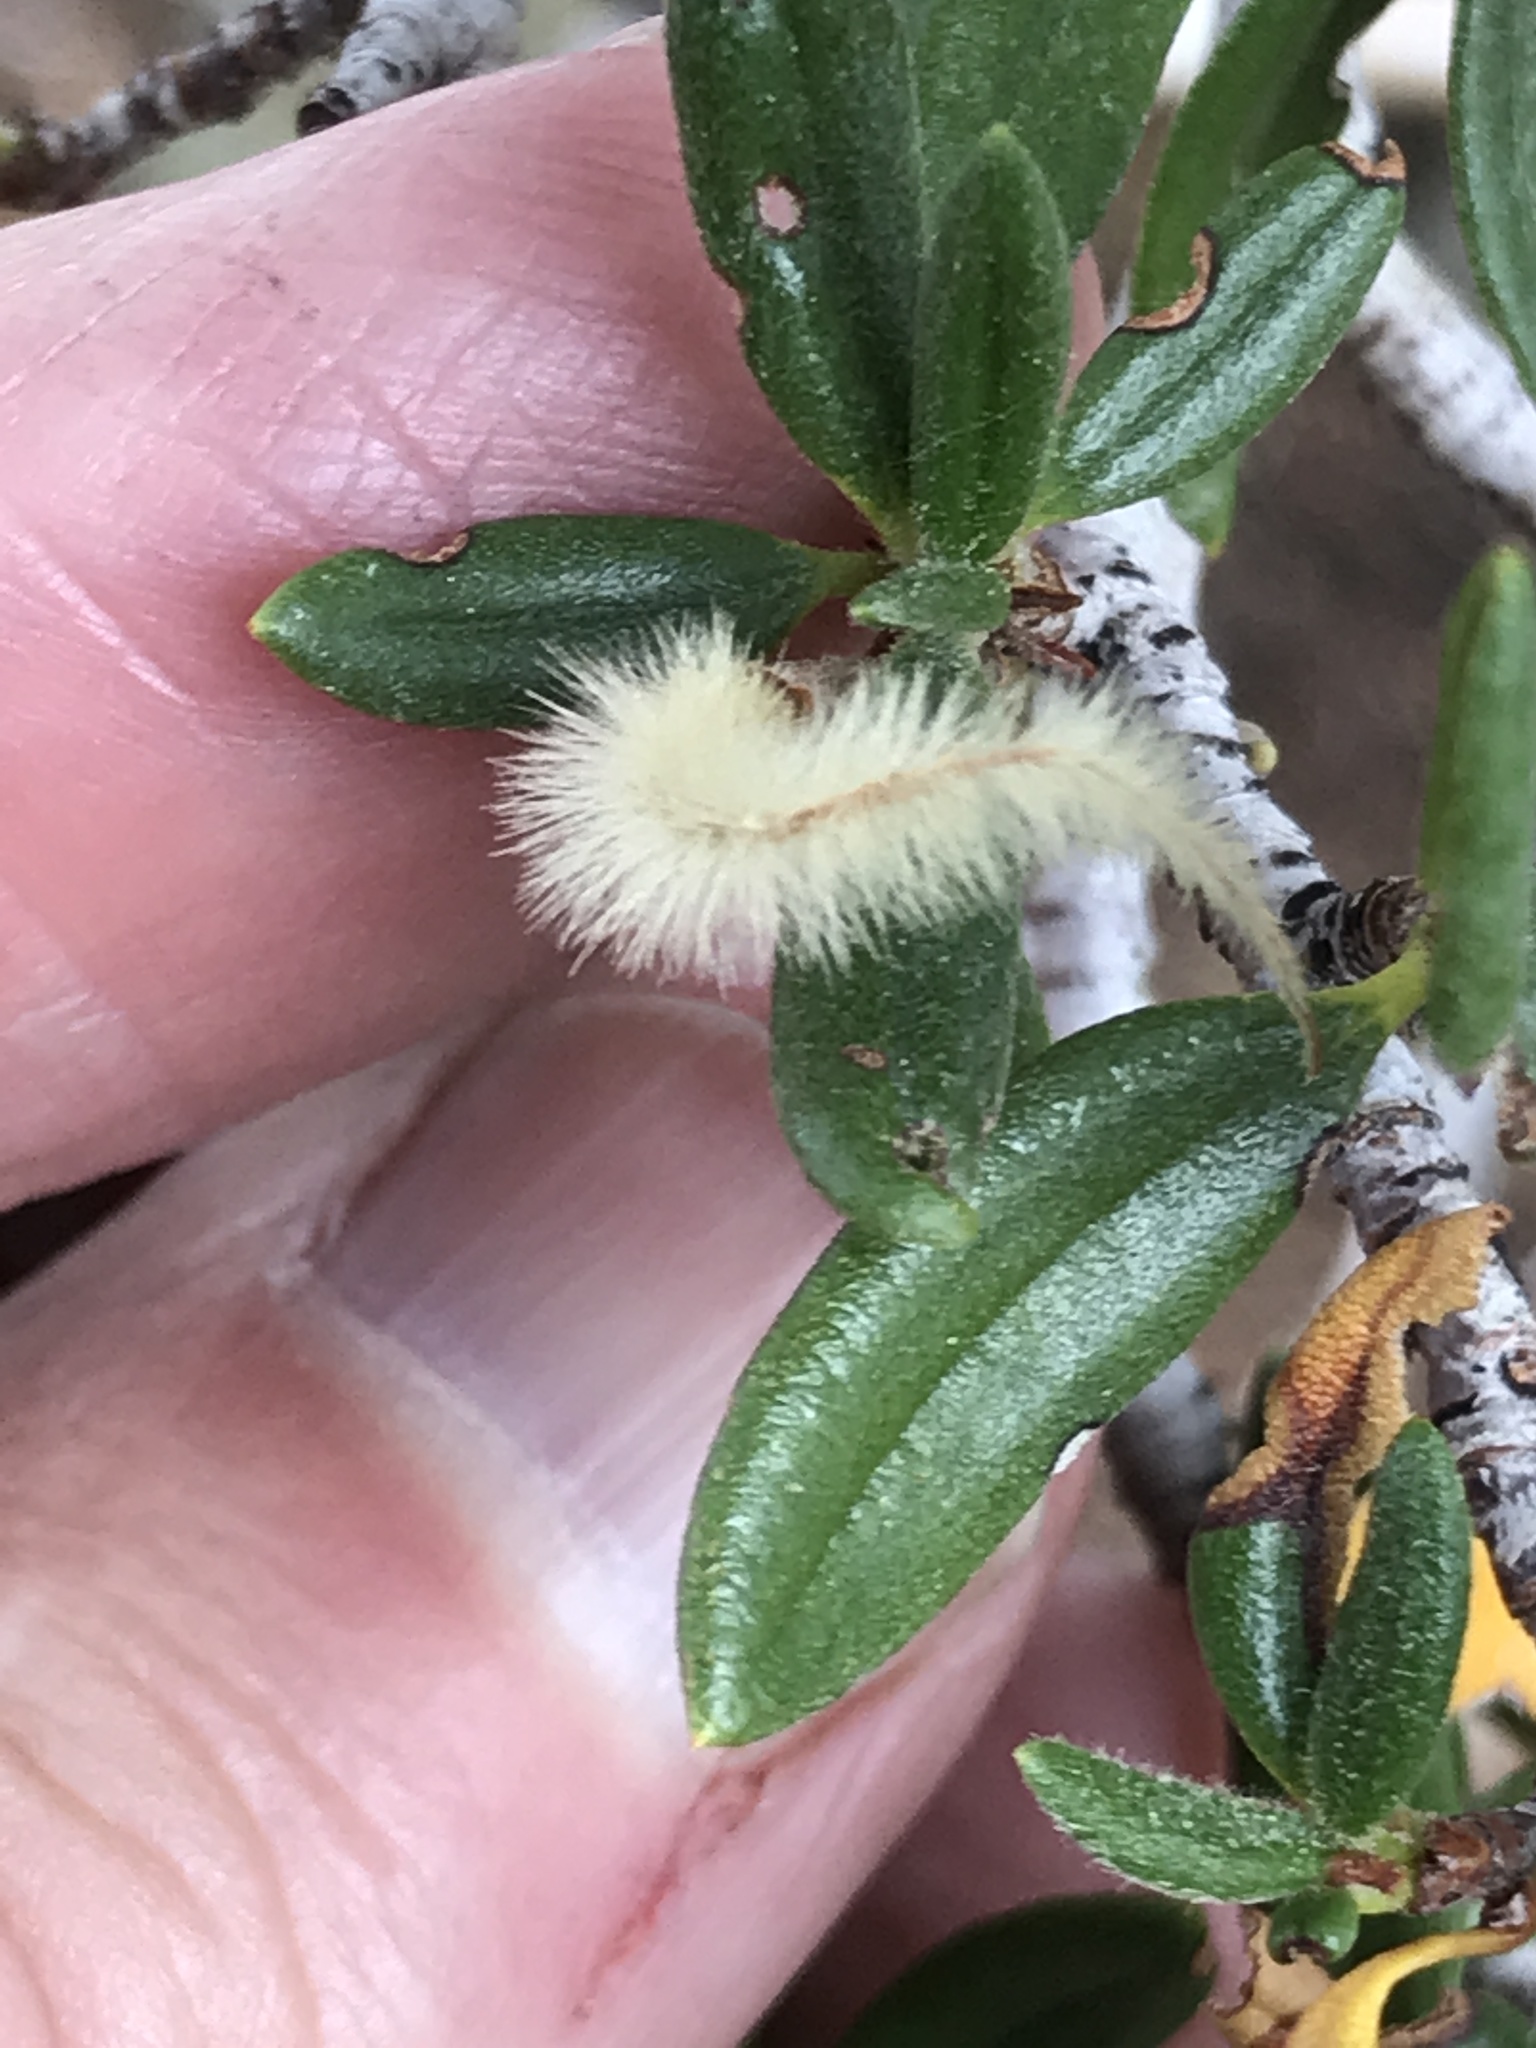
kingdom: Plantae
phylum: Tracheophyta
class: Magnoliopsida
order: Rosales
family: Rosaceae
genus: Cercocarpus
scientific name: Cercocarpus ledifolius
